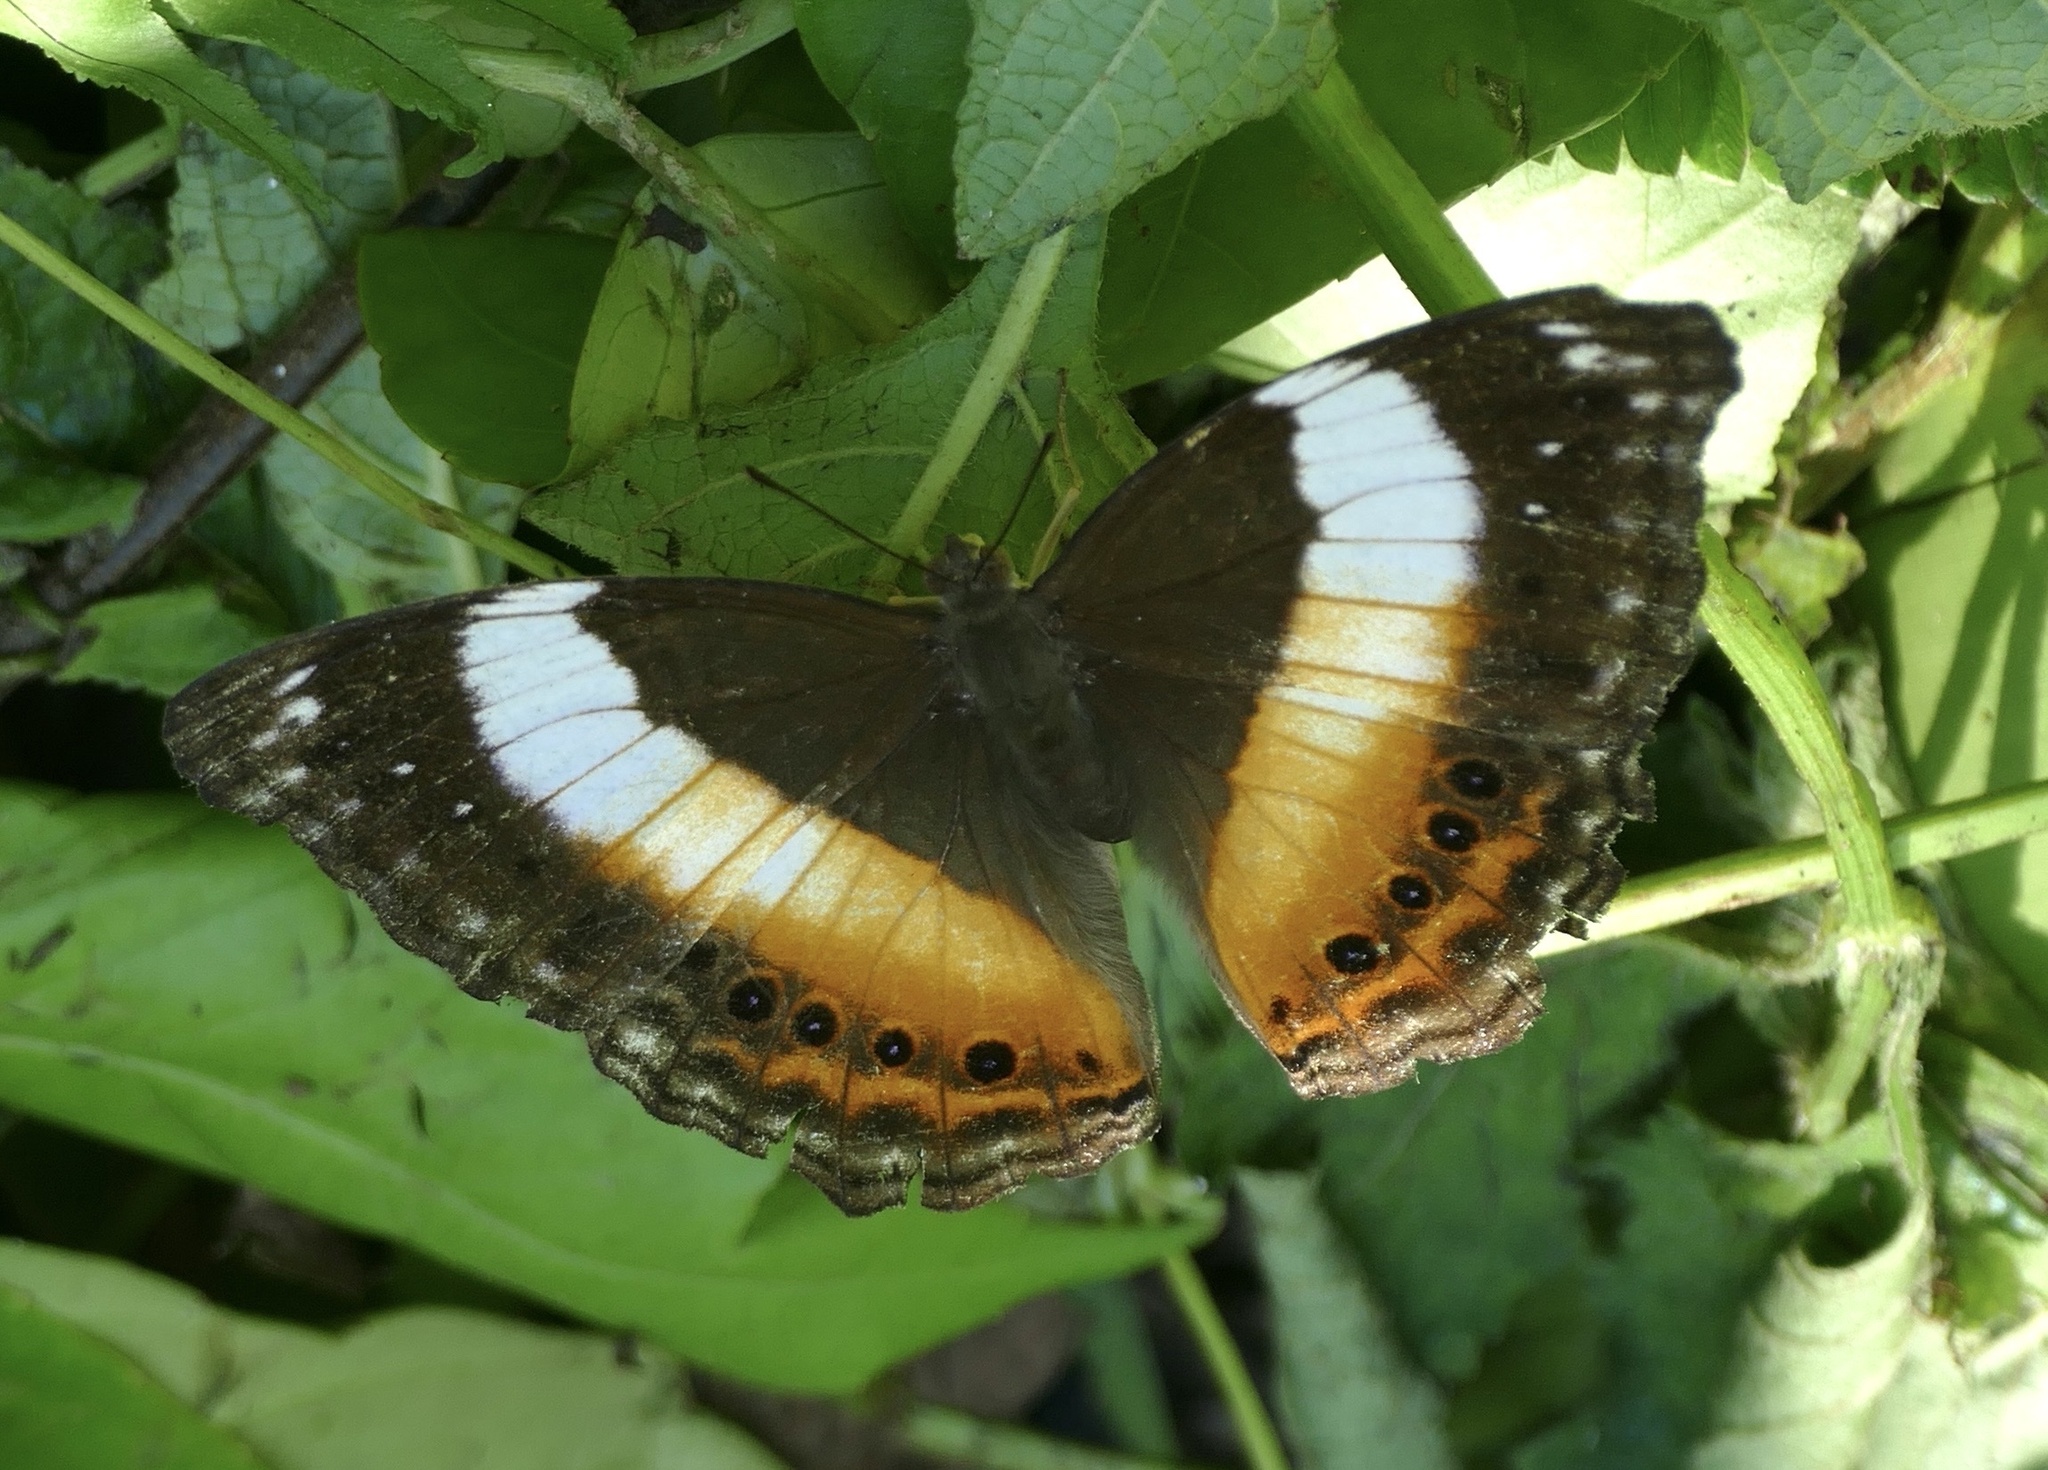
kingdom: Animalia
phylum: Arthropoda
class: Insecta
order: Lepidoptera
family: Nymphalidae
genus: Yoma
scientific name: Yoma algina
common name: New guinea lurcher
